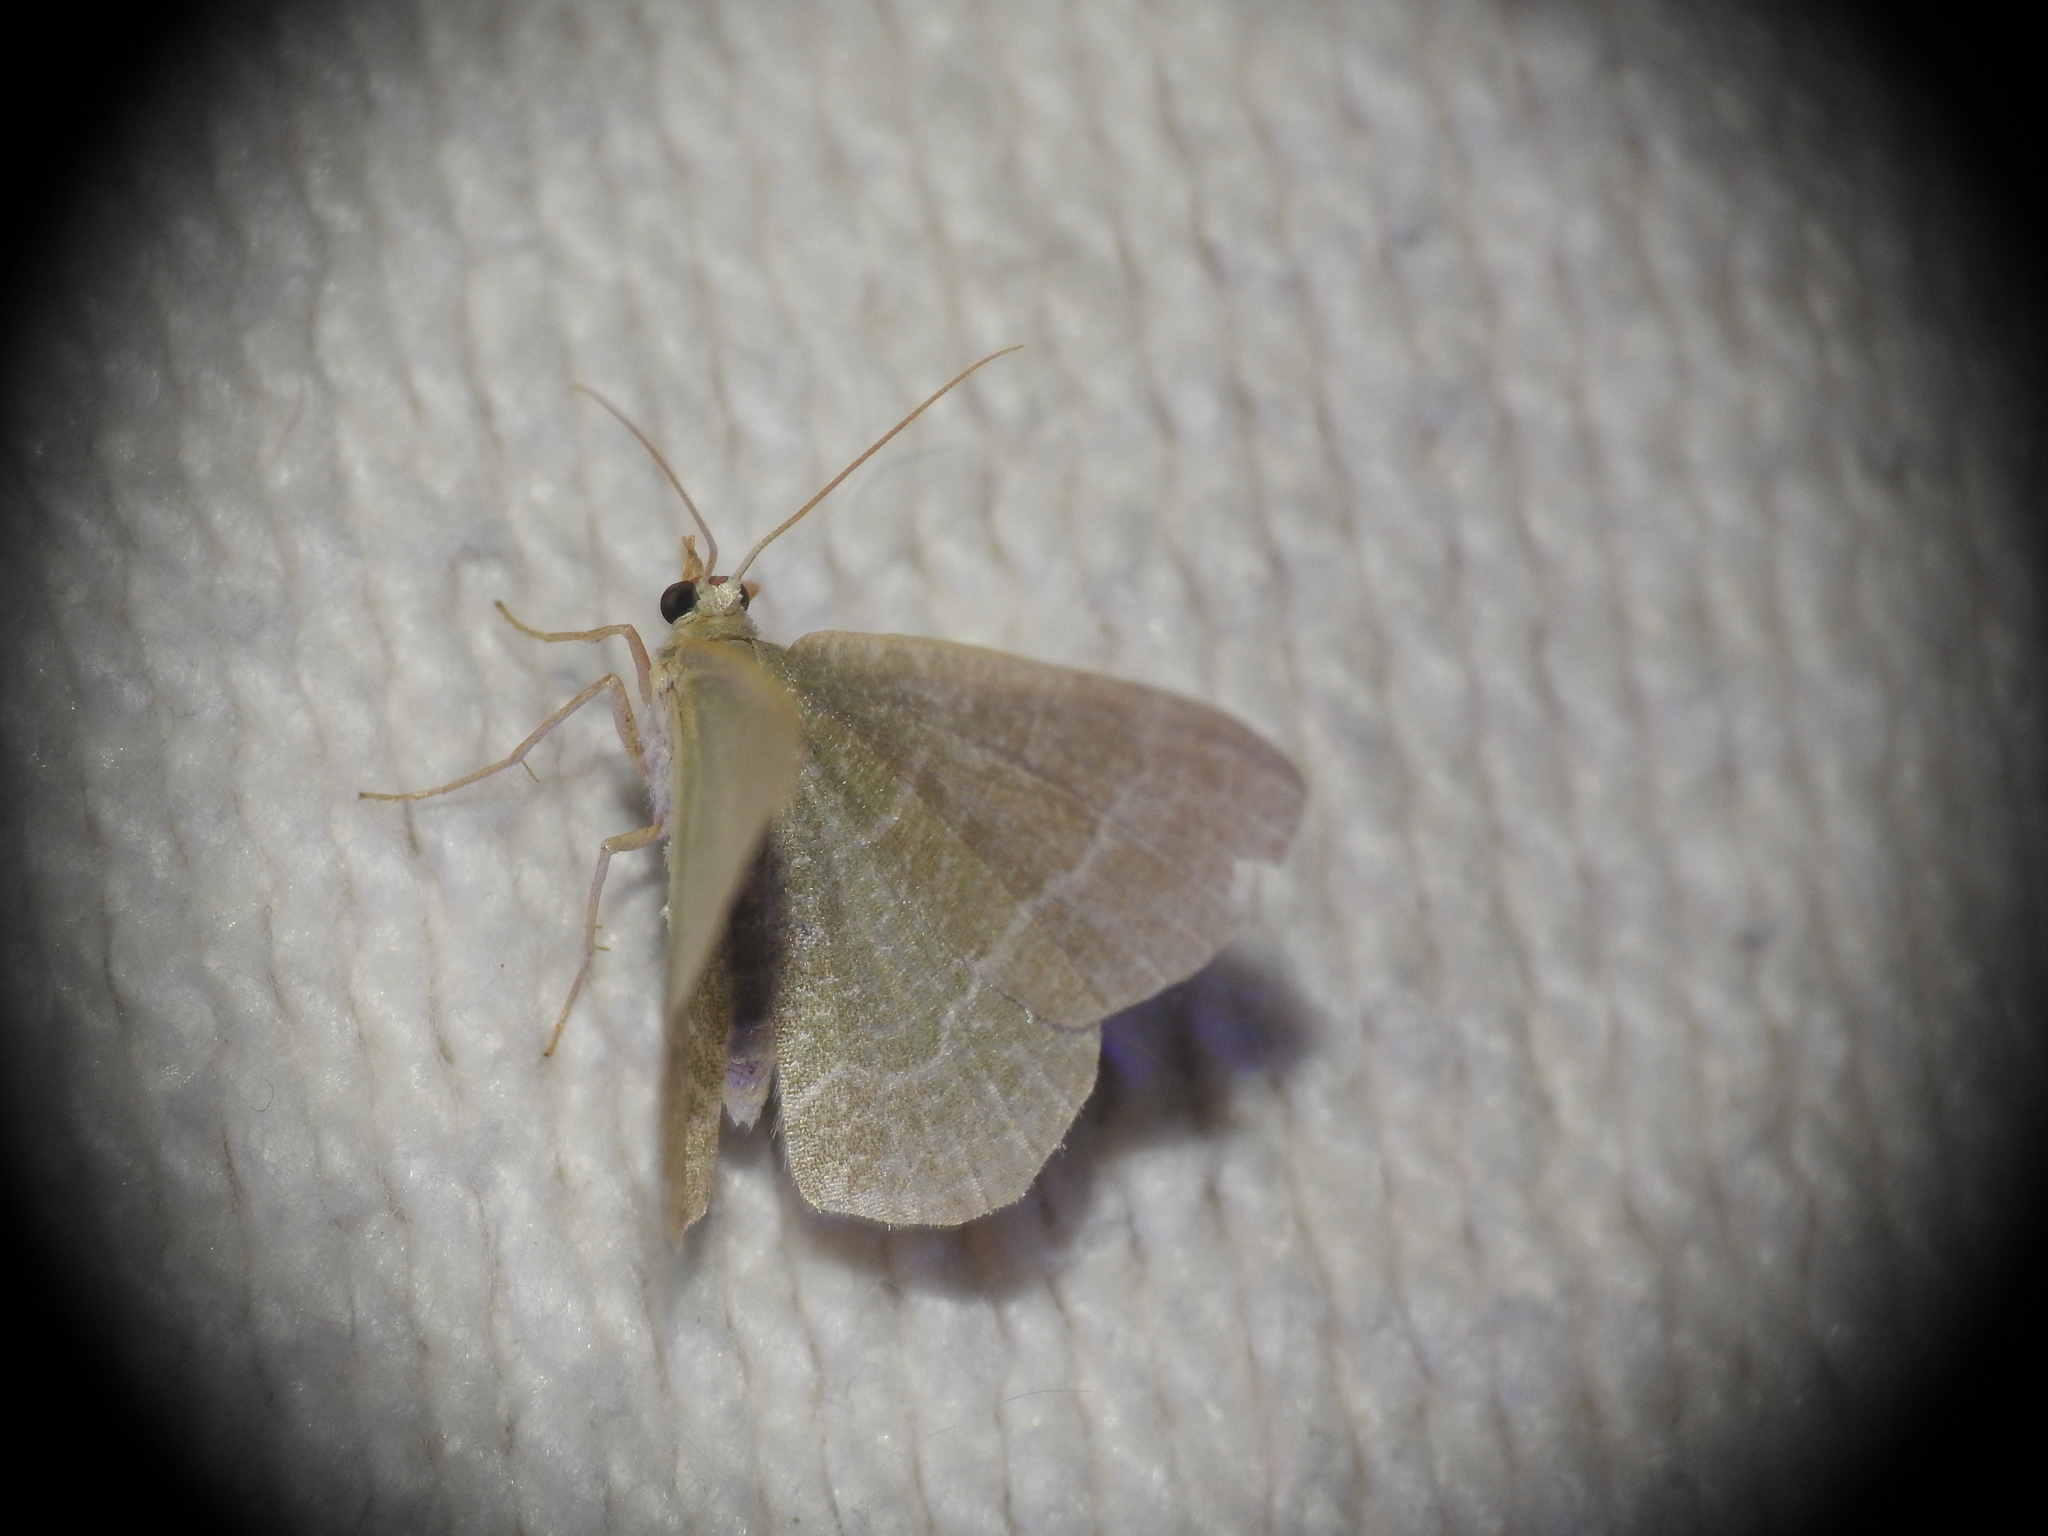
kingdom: Animalia
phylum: Arthropoda
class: Insecta
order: Lepidoptera
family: Geometridae
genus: Chlorissa
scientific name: Chlorissa etruscaria
